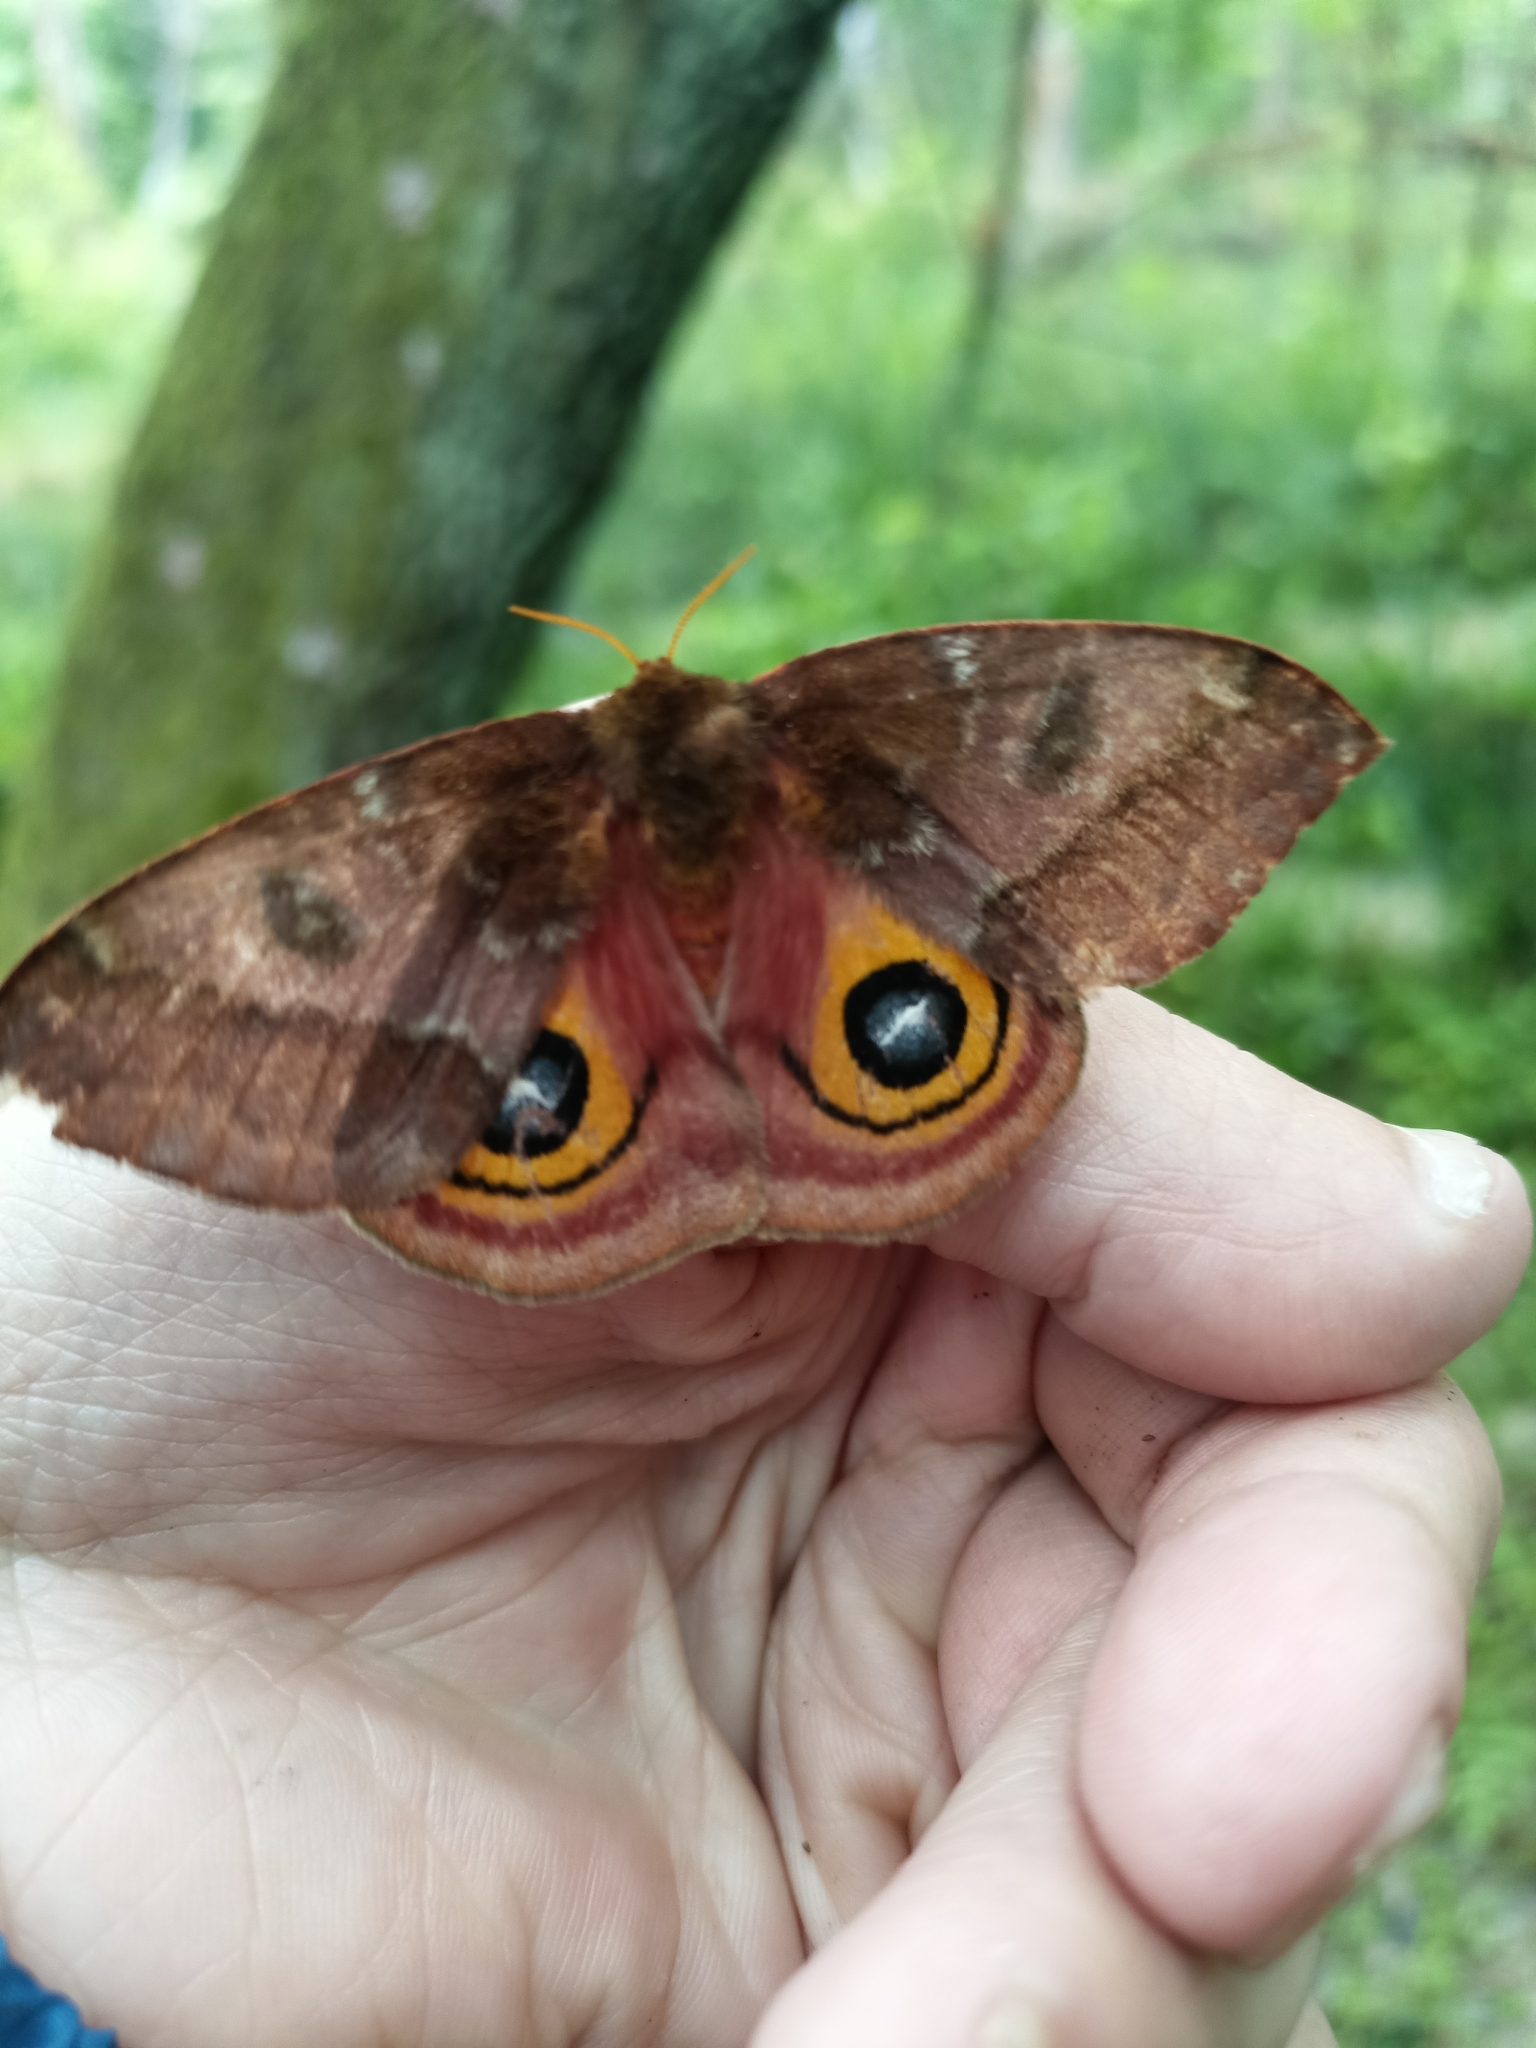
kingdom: Animalia
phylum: Arthropoda
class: Insecta
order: Lepidoptera
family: Saturniidae
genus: Automeris
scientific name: Automeris io
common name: Io moth
